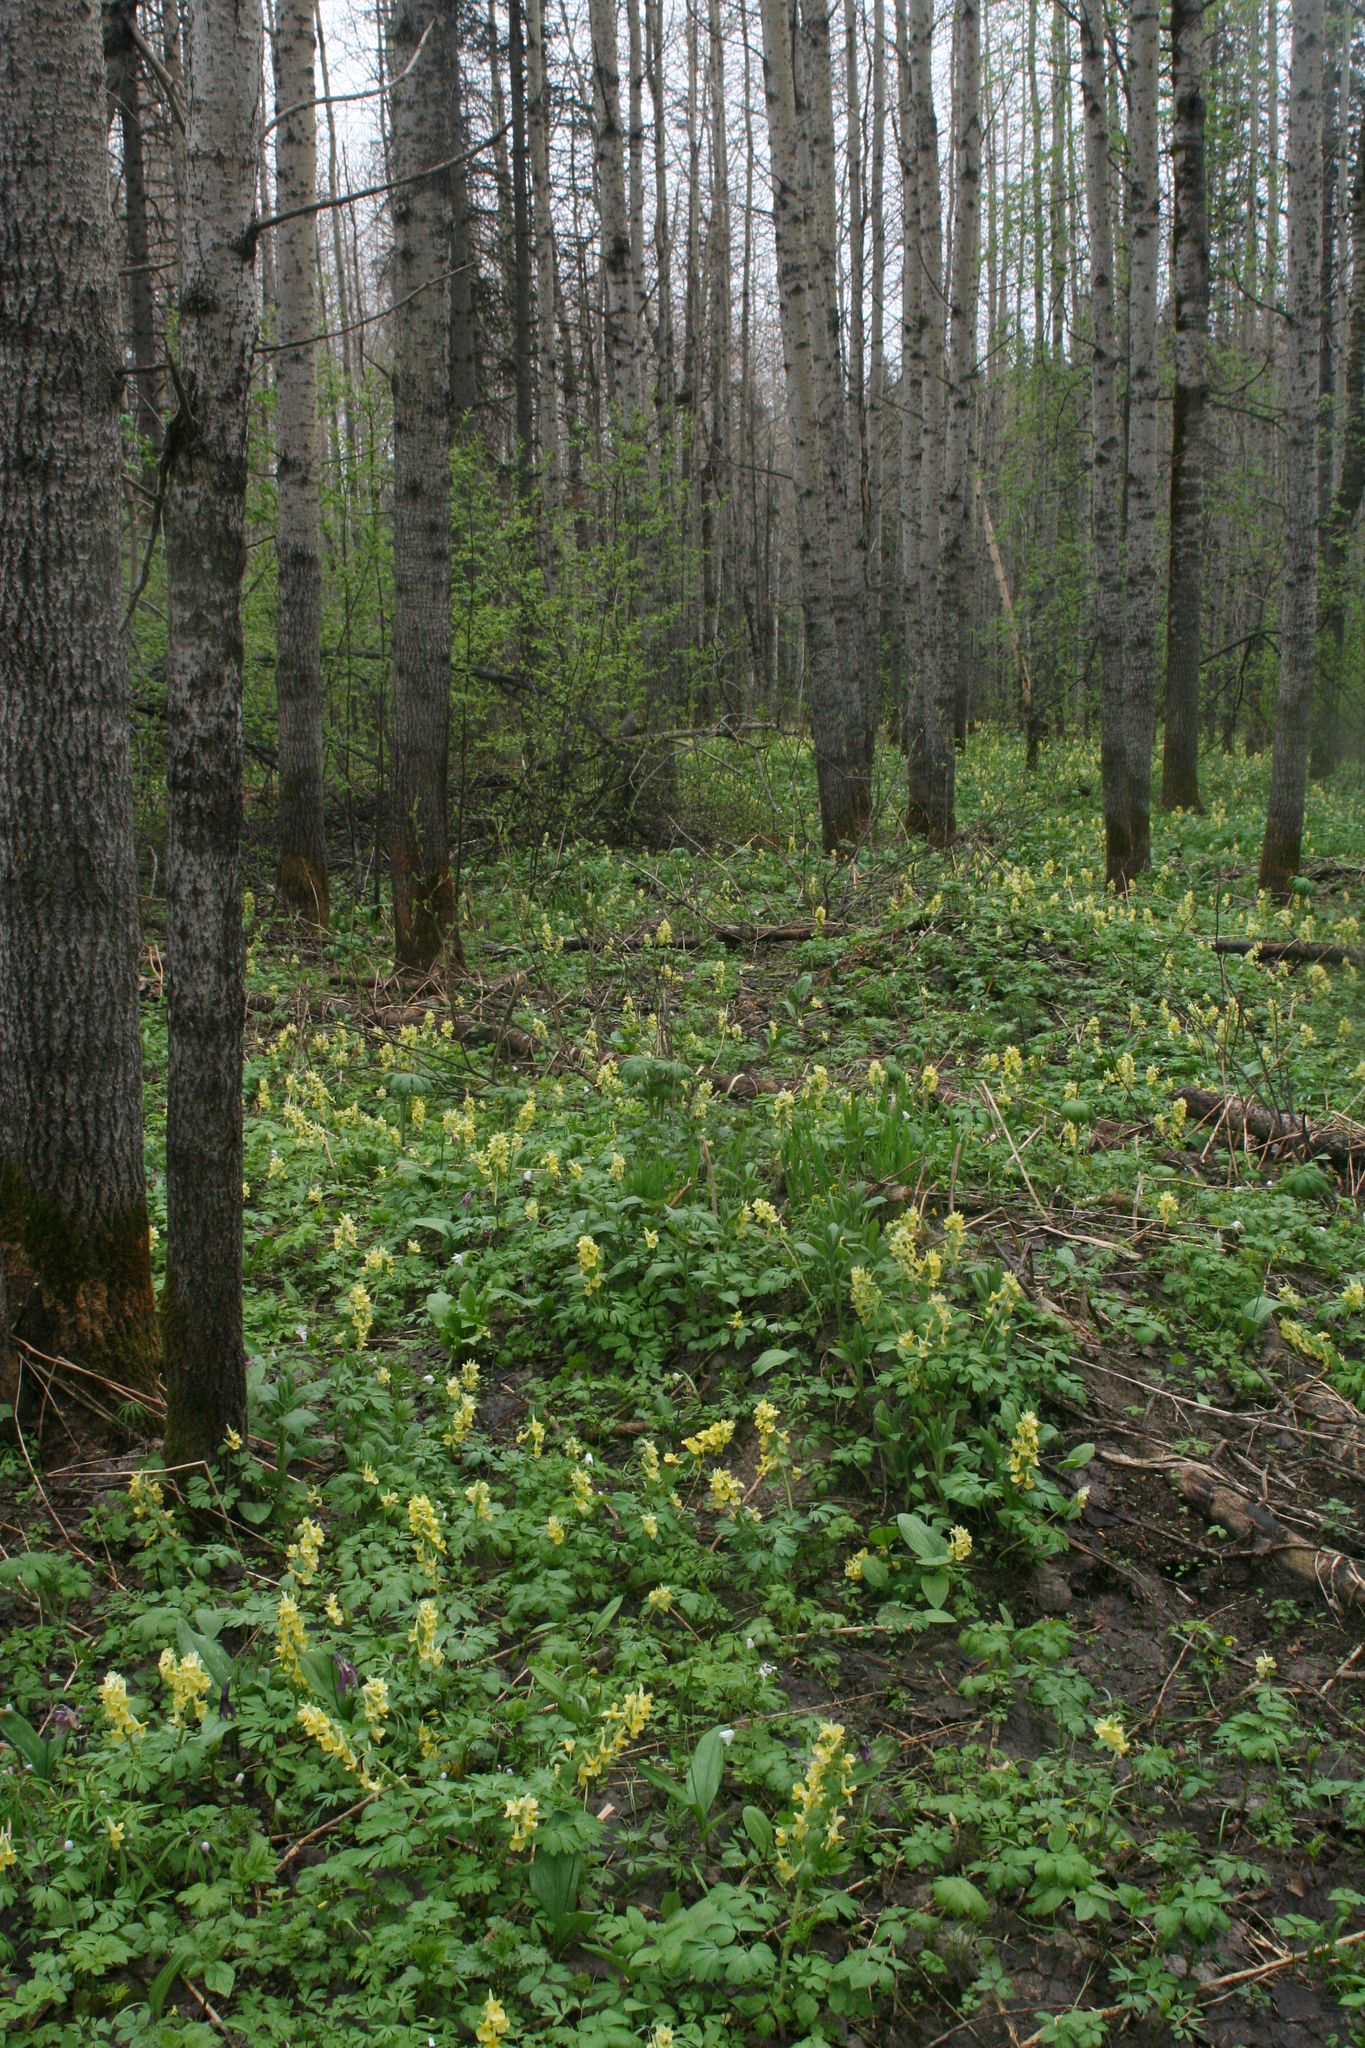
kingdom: Plantae
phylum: Tracheophyta
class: Magnoliopsida
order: Ranunculales
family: Papaveraceae
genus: Corydalis
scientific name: Corydalis bracteata
